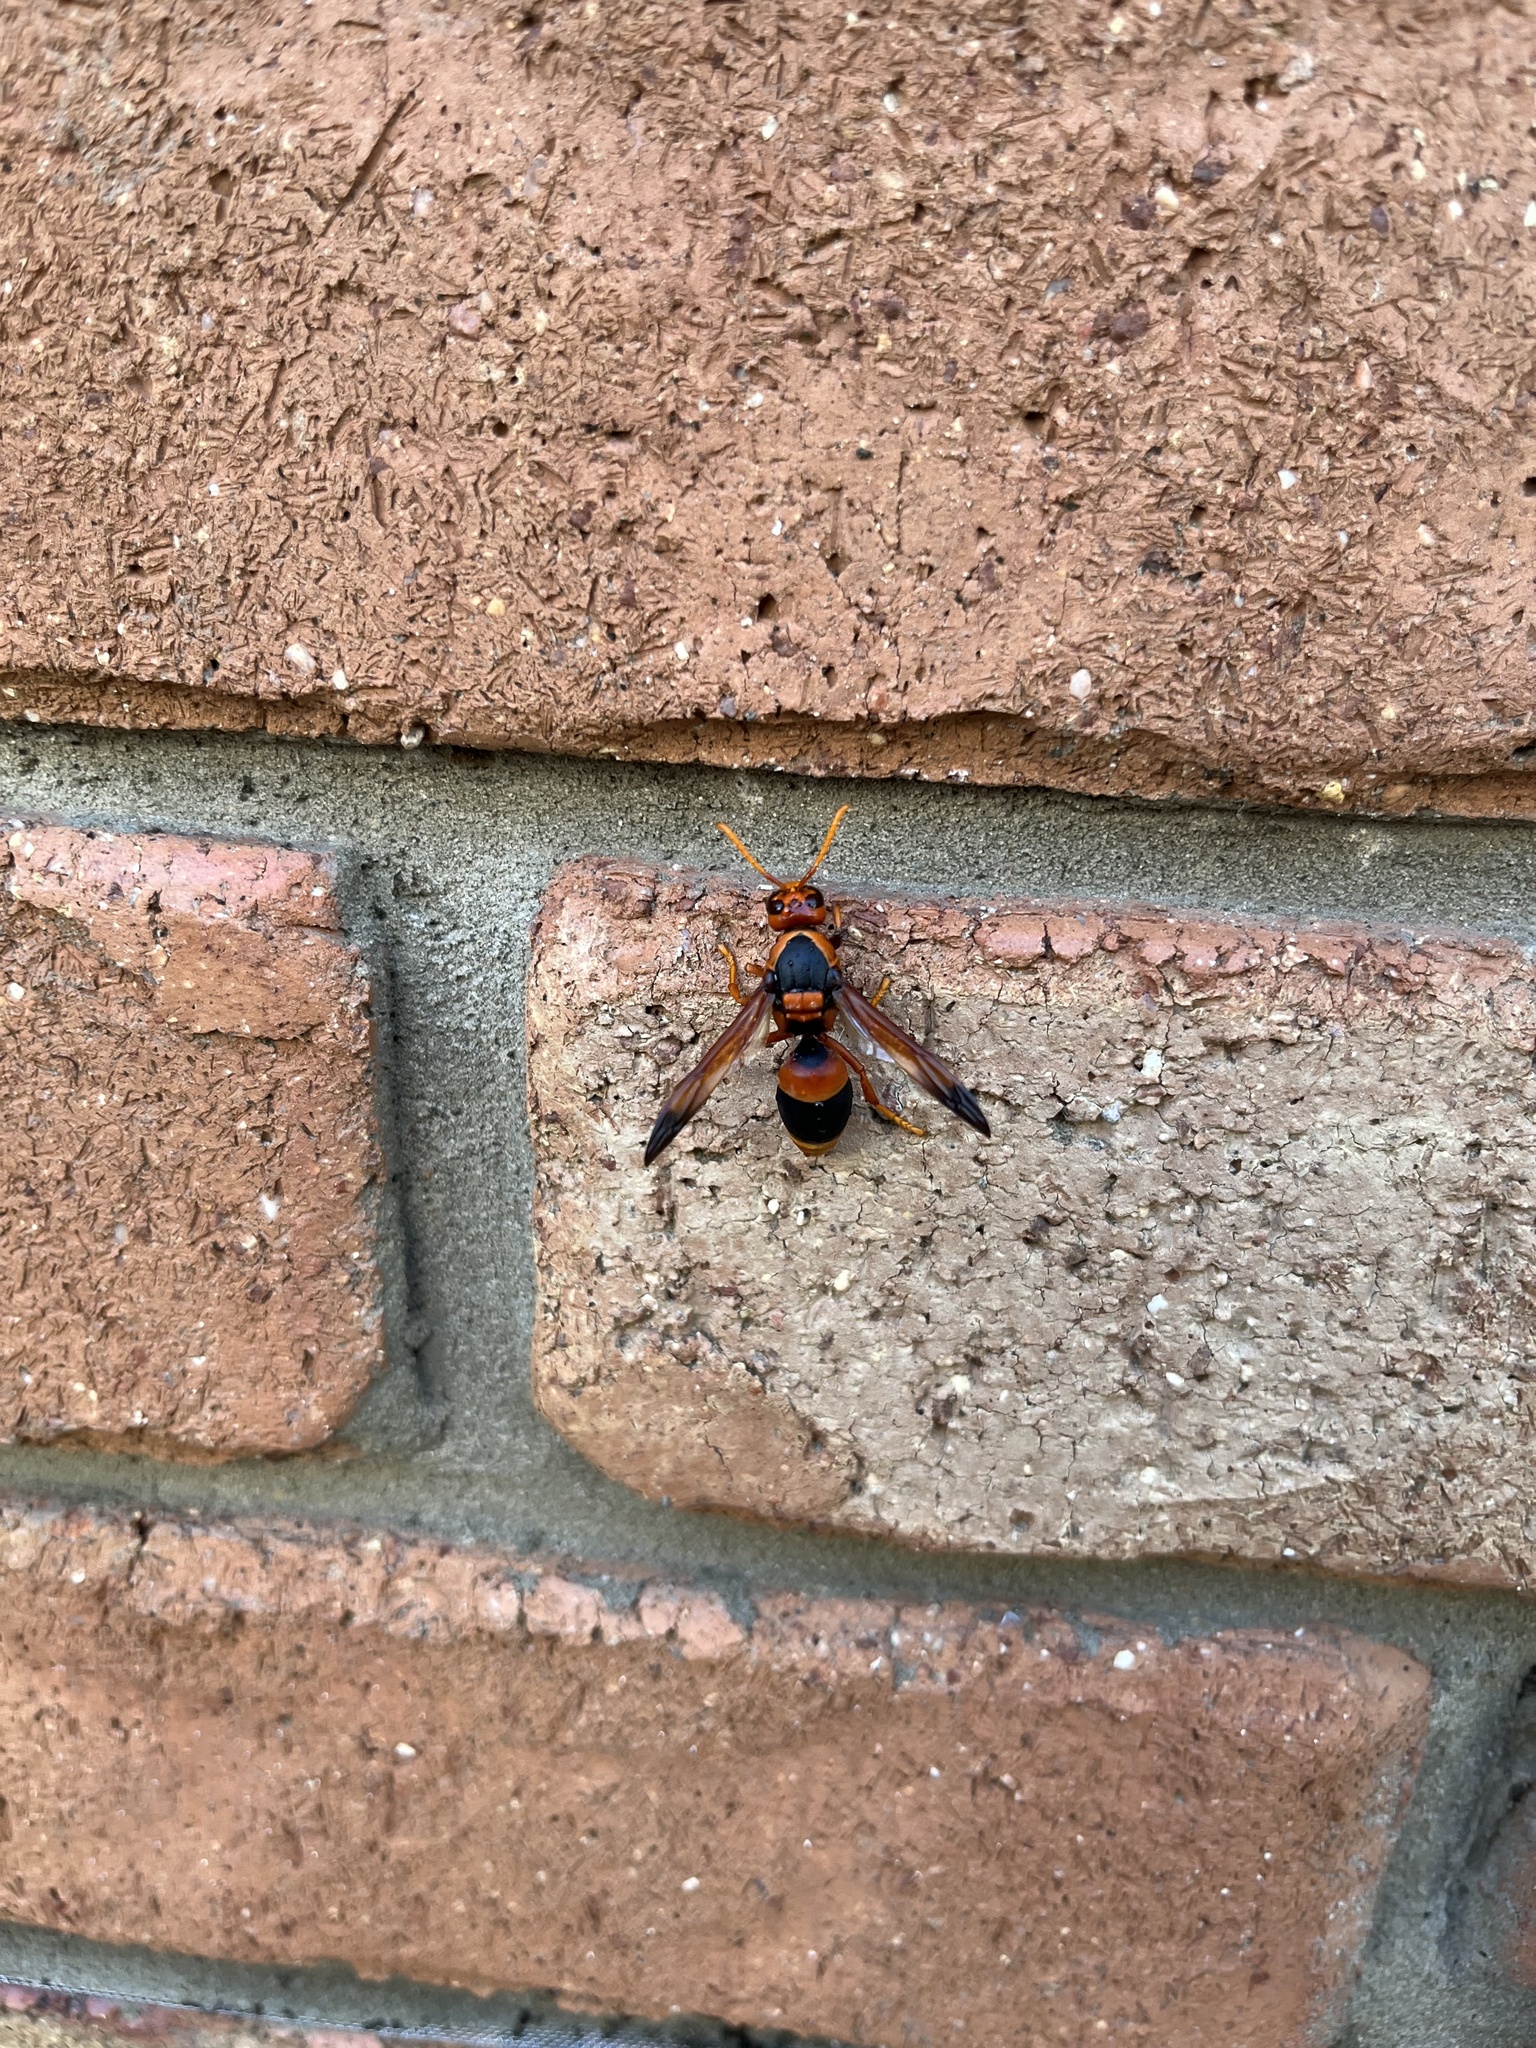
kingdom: Animalia
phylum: Arthropoda
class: Insecta
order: Hymenoptera
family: Eumenidae
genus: Abispa
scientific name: Abispa ephippium
